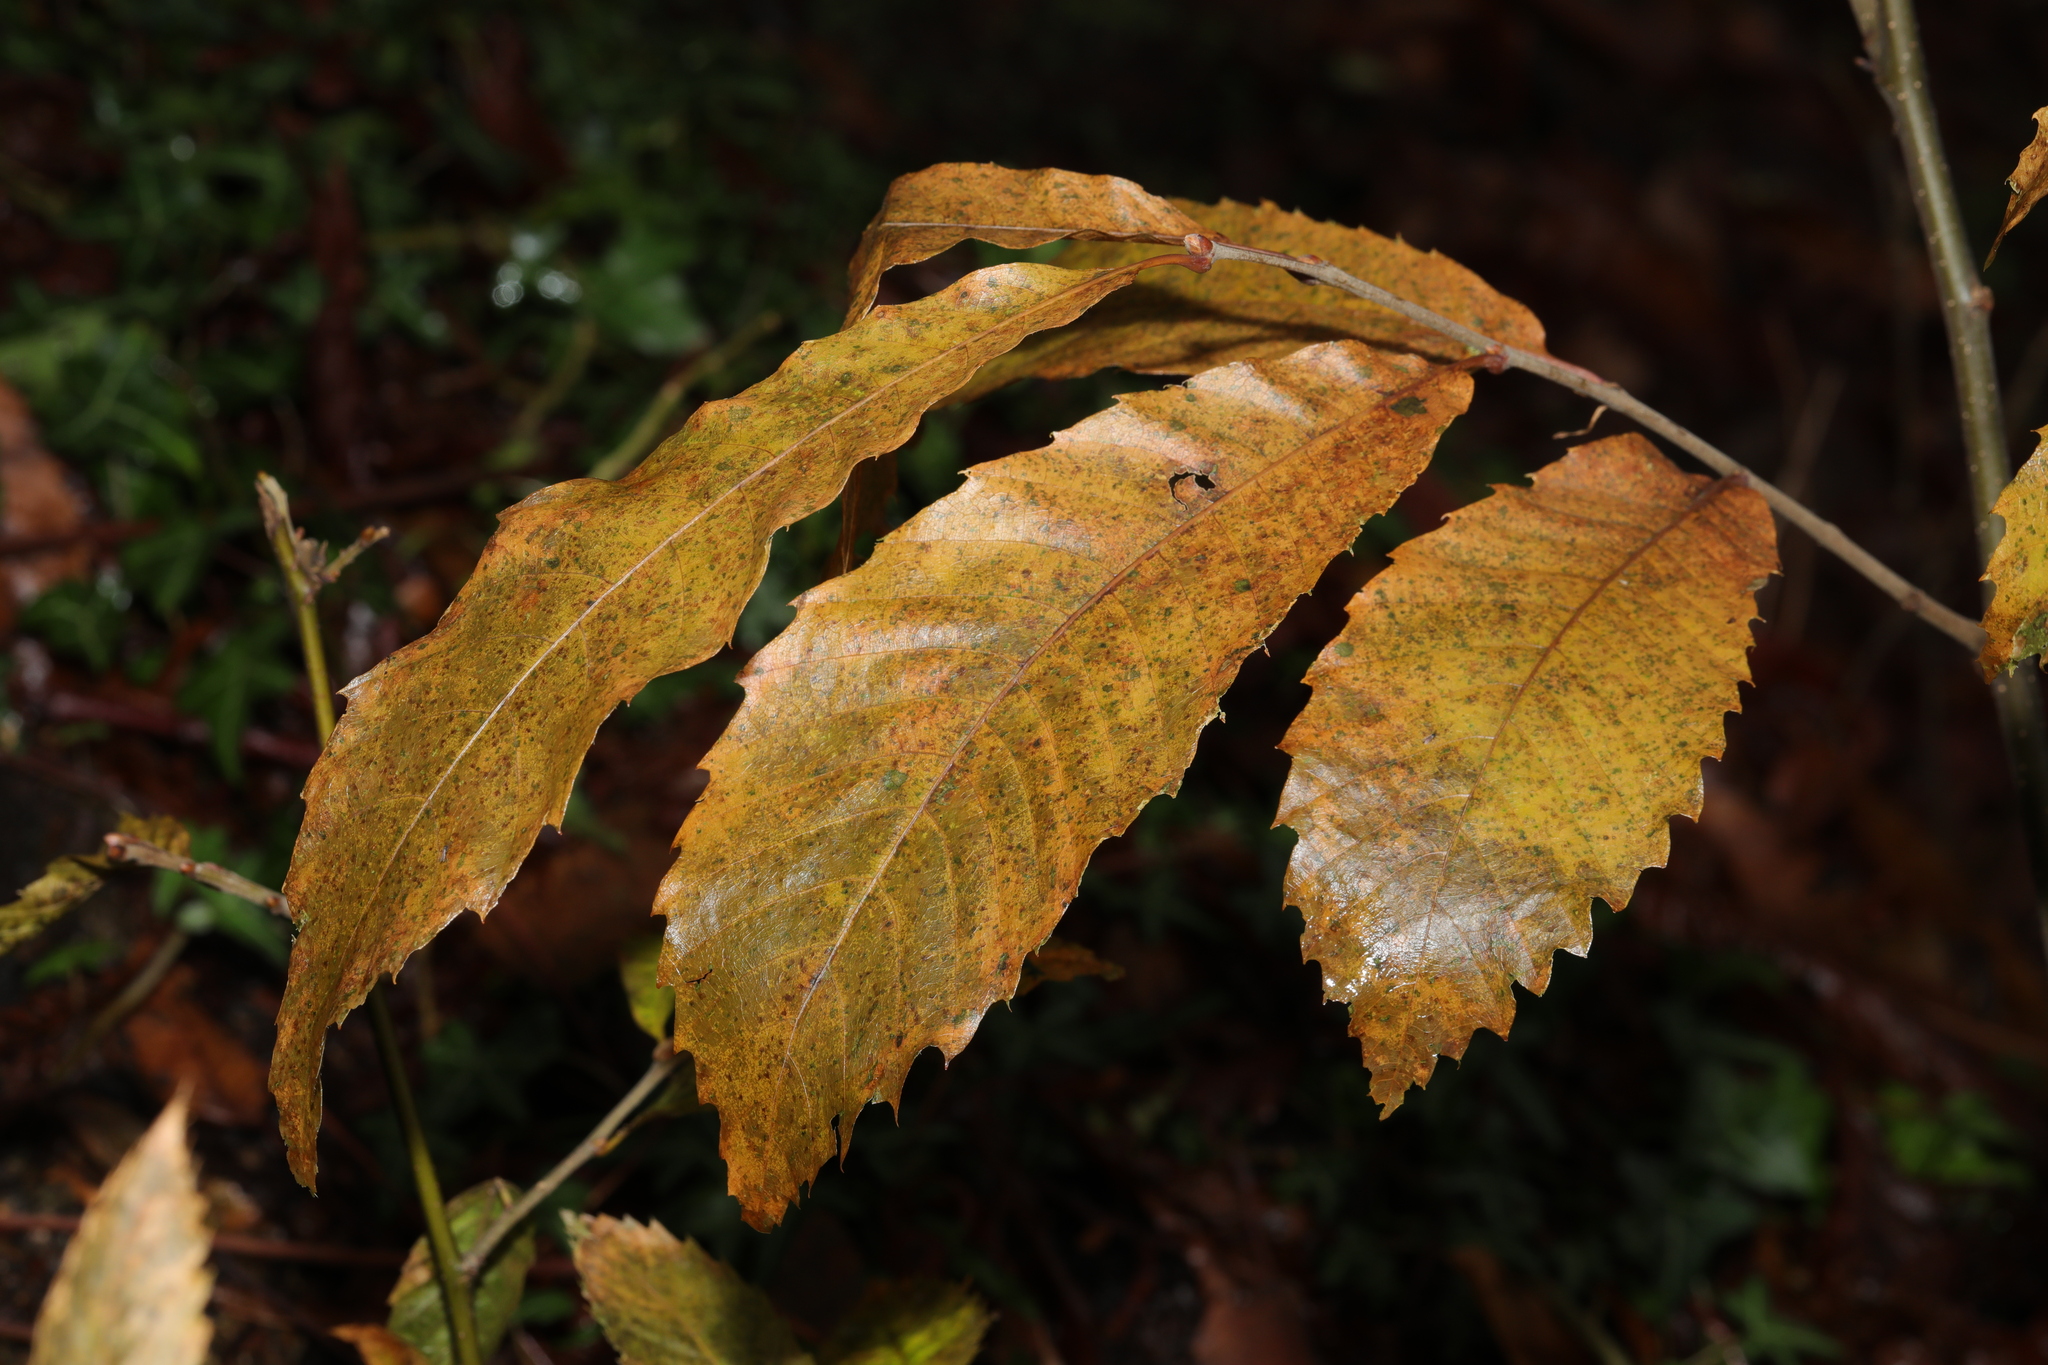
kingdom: Plantae
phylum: Tracheophyta
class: Magnoliopsida
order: Fagales
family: Fagaceae
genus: Castanea
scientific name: Castanea sativa
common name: Sweet chestnut
